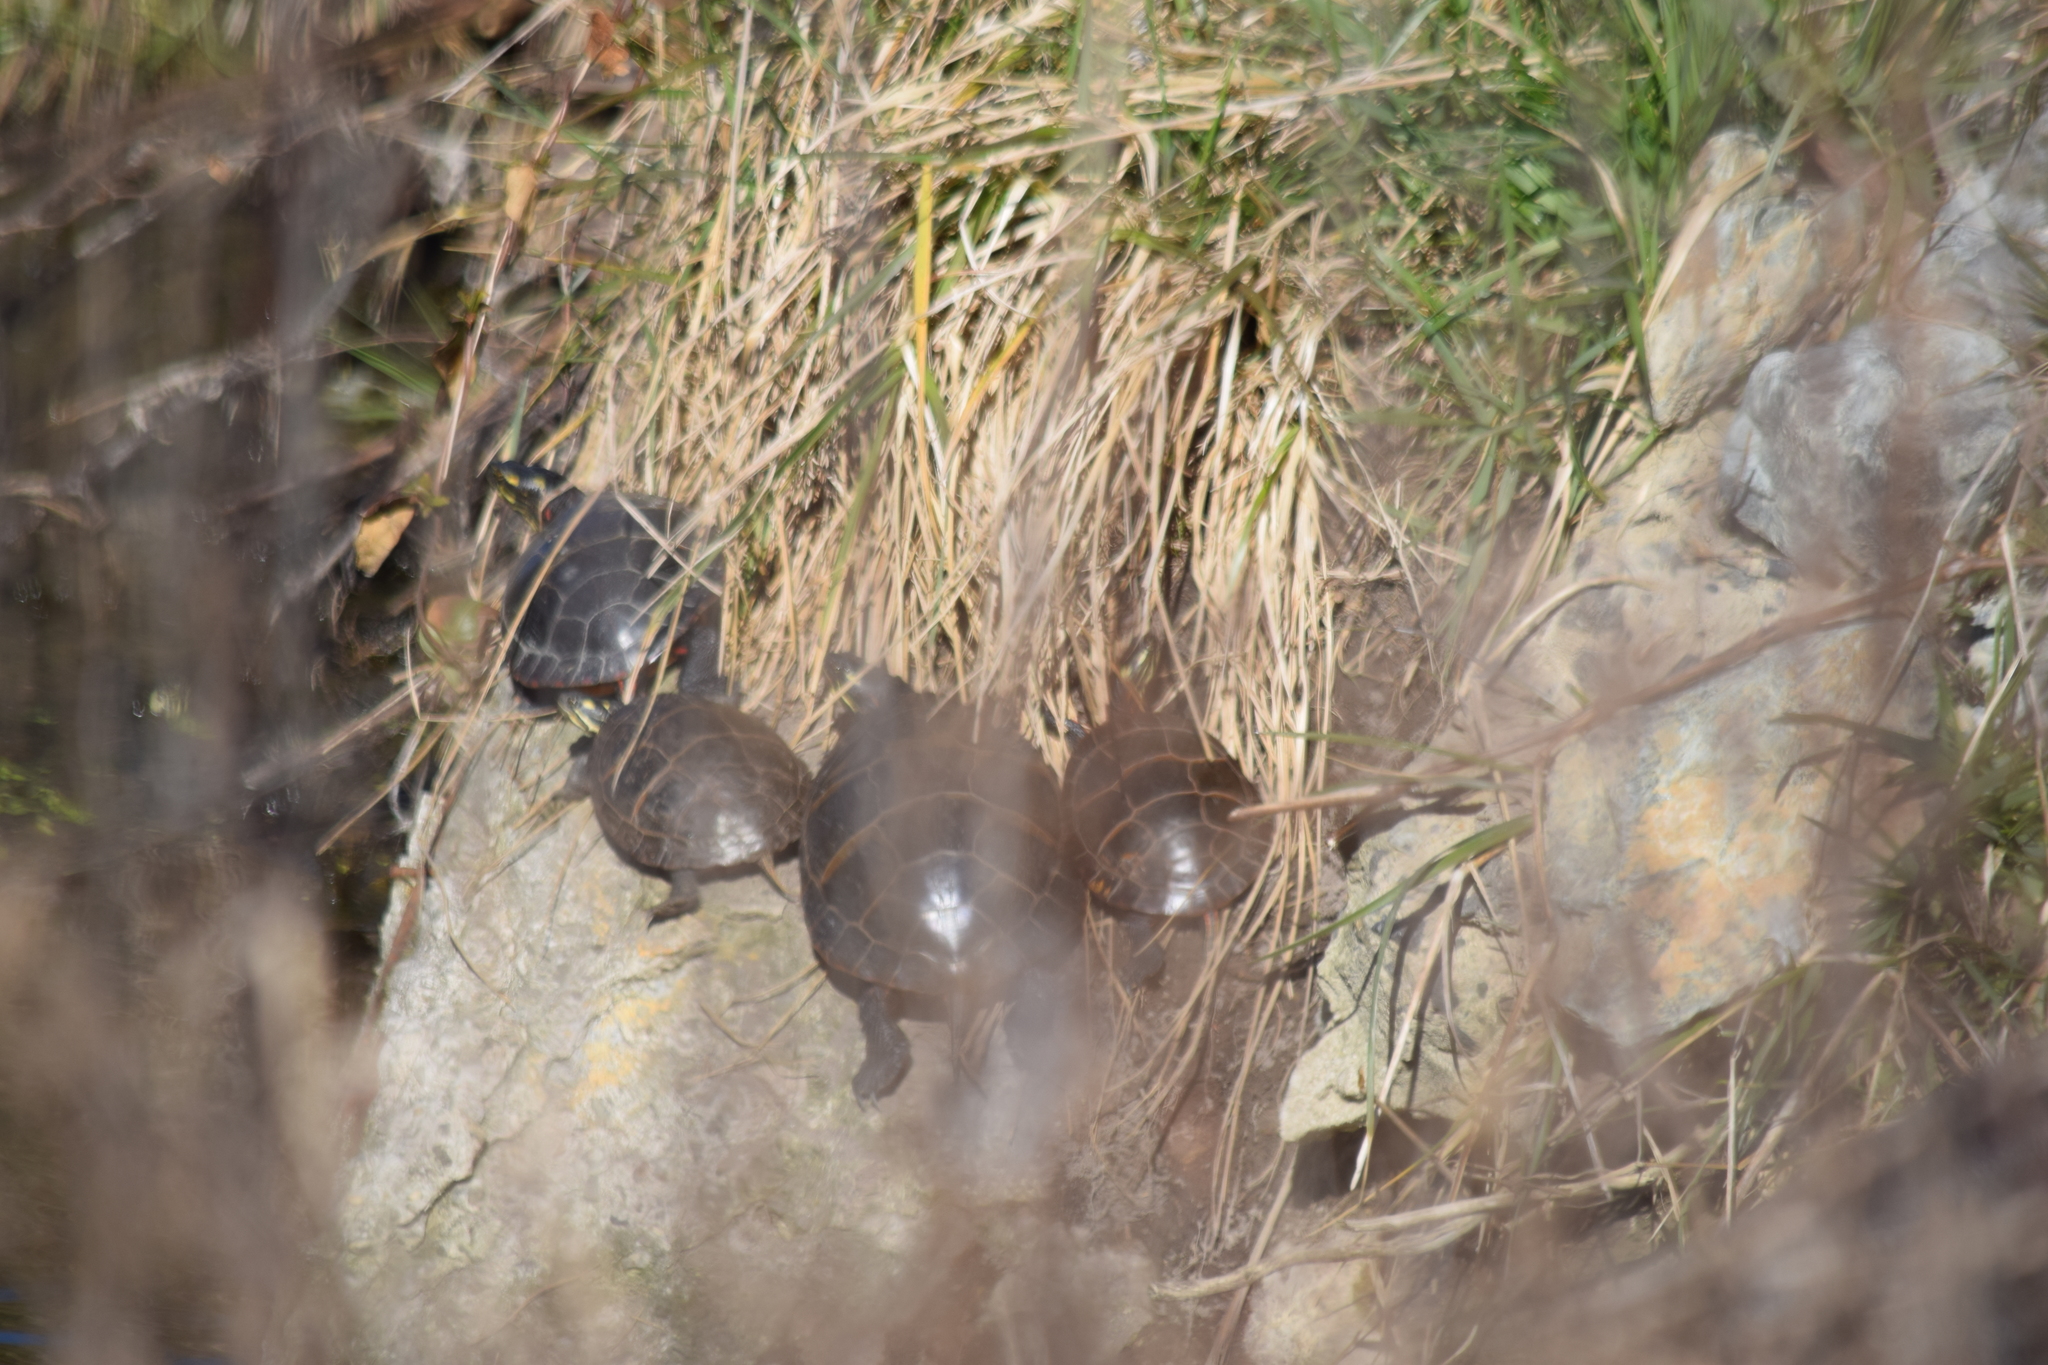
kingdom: Animalia
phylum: Chordata
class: Testudines
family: Emydidae
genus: Chrysemys
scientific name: Chrysemys picta
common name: Painted turtle
